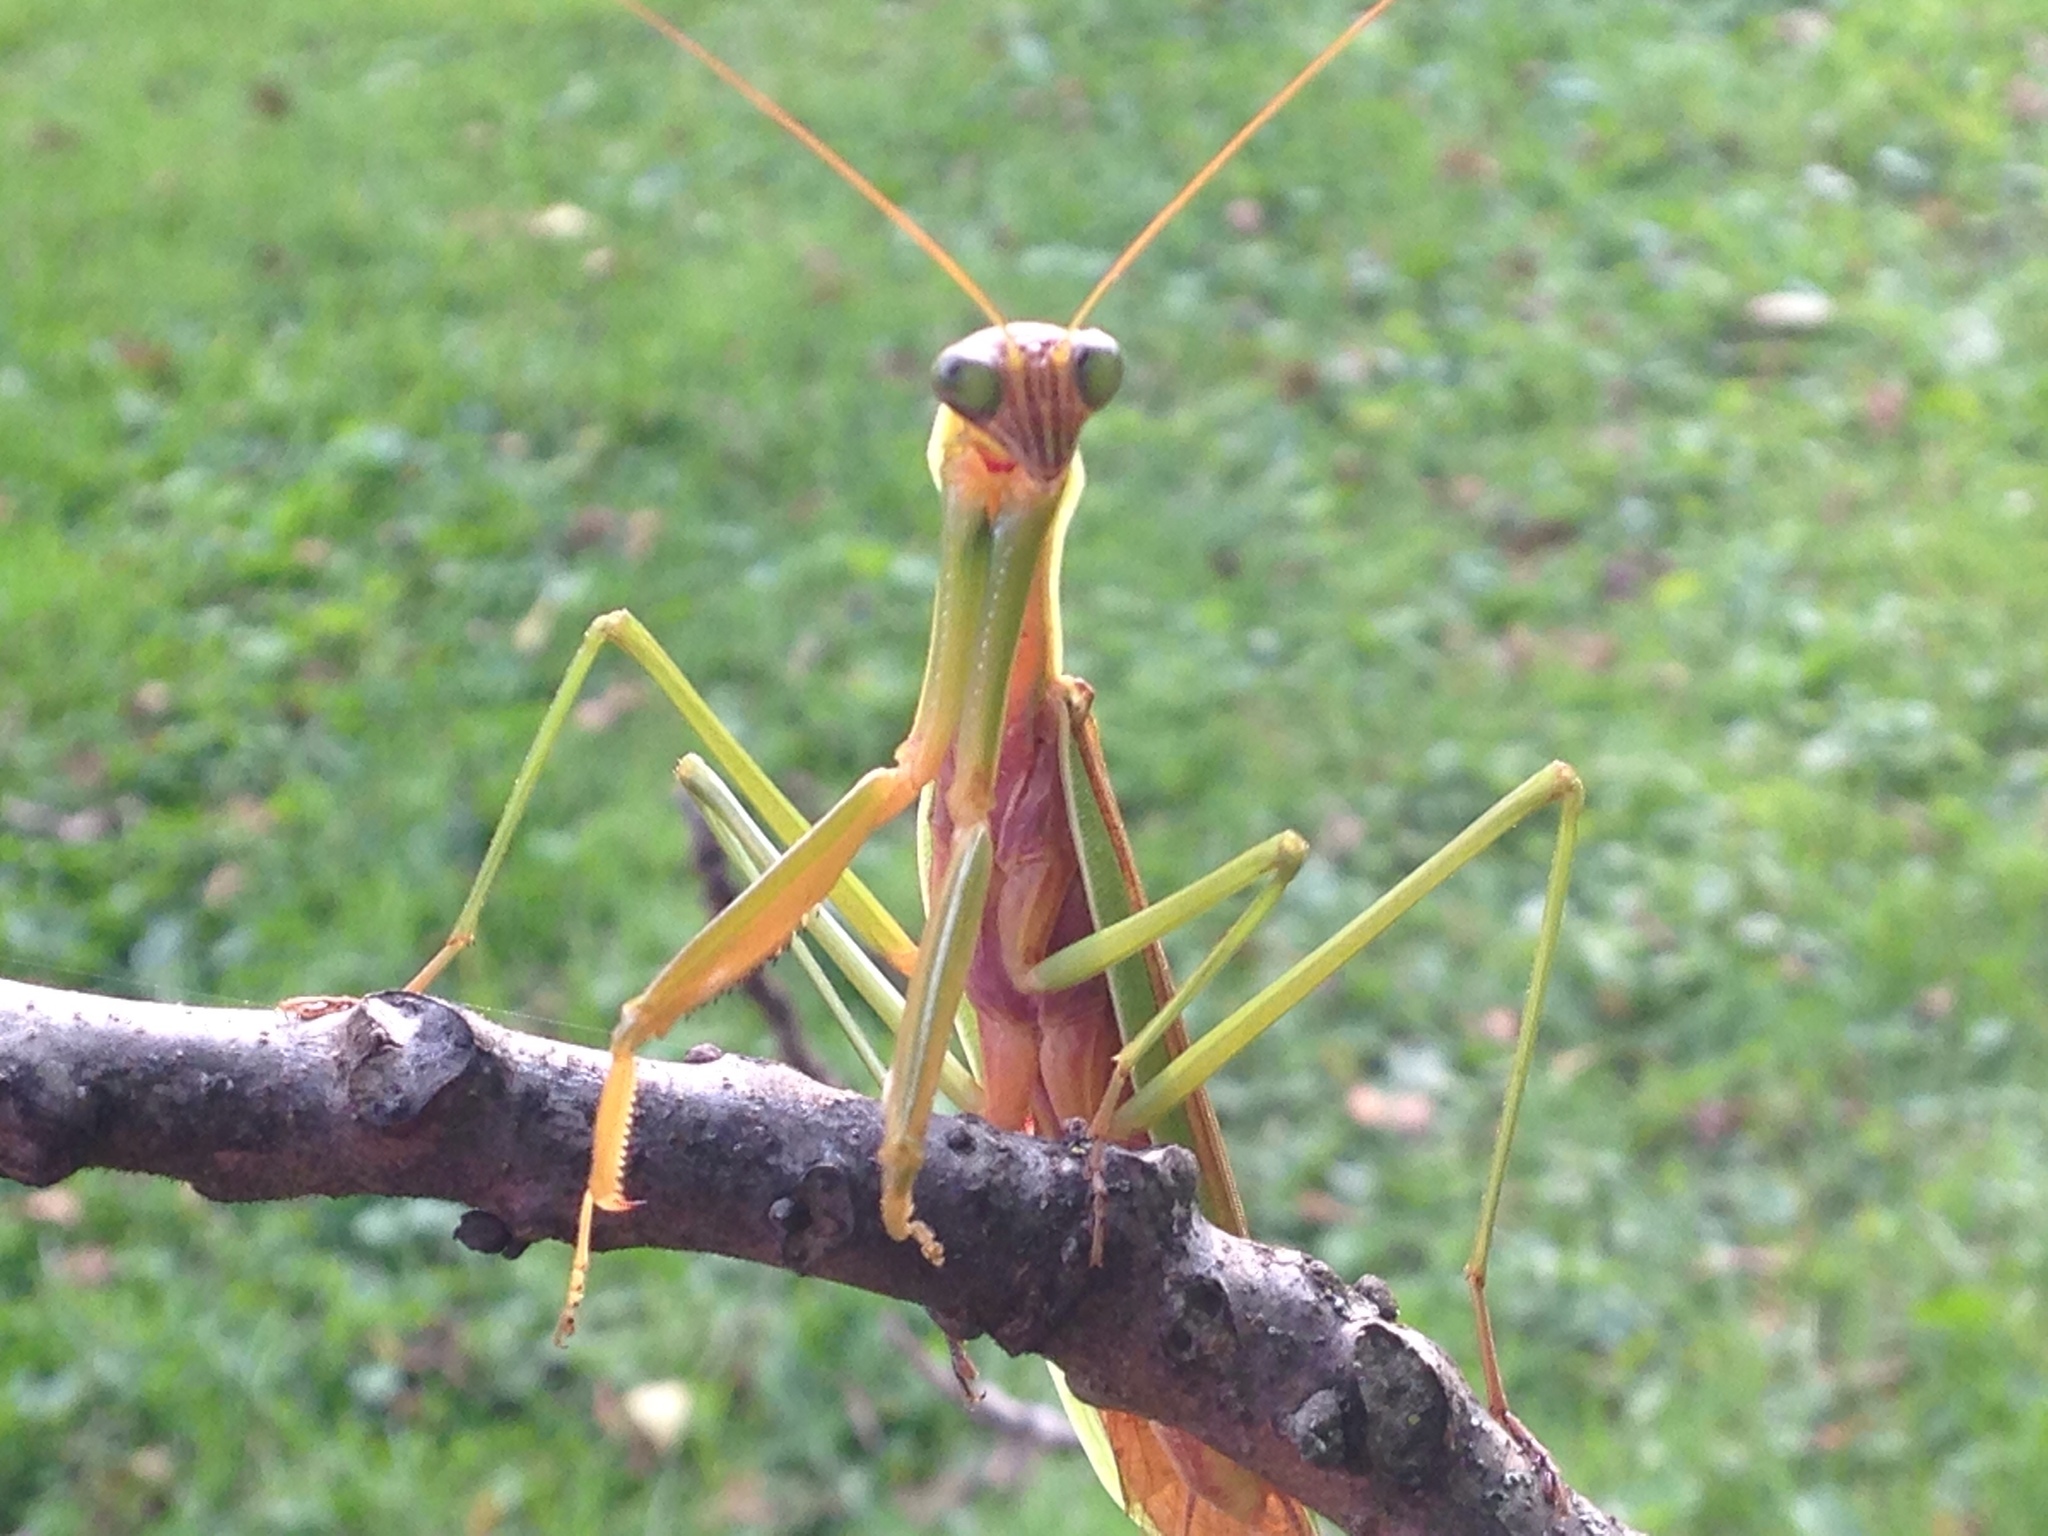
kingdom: Animalia
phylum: Arthropoda
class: Insecta
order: Mantodea
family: Mantidae
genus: Tenodera
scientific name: Tenodera sinensis
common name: Chinese mantis
